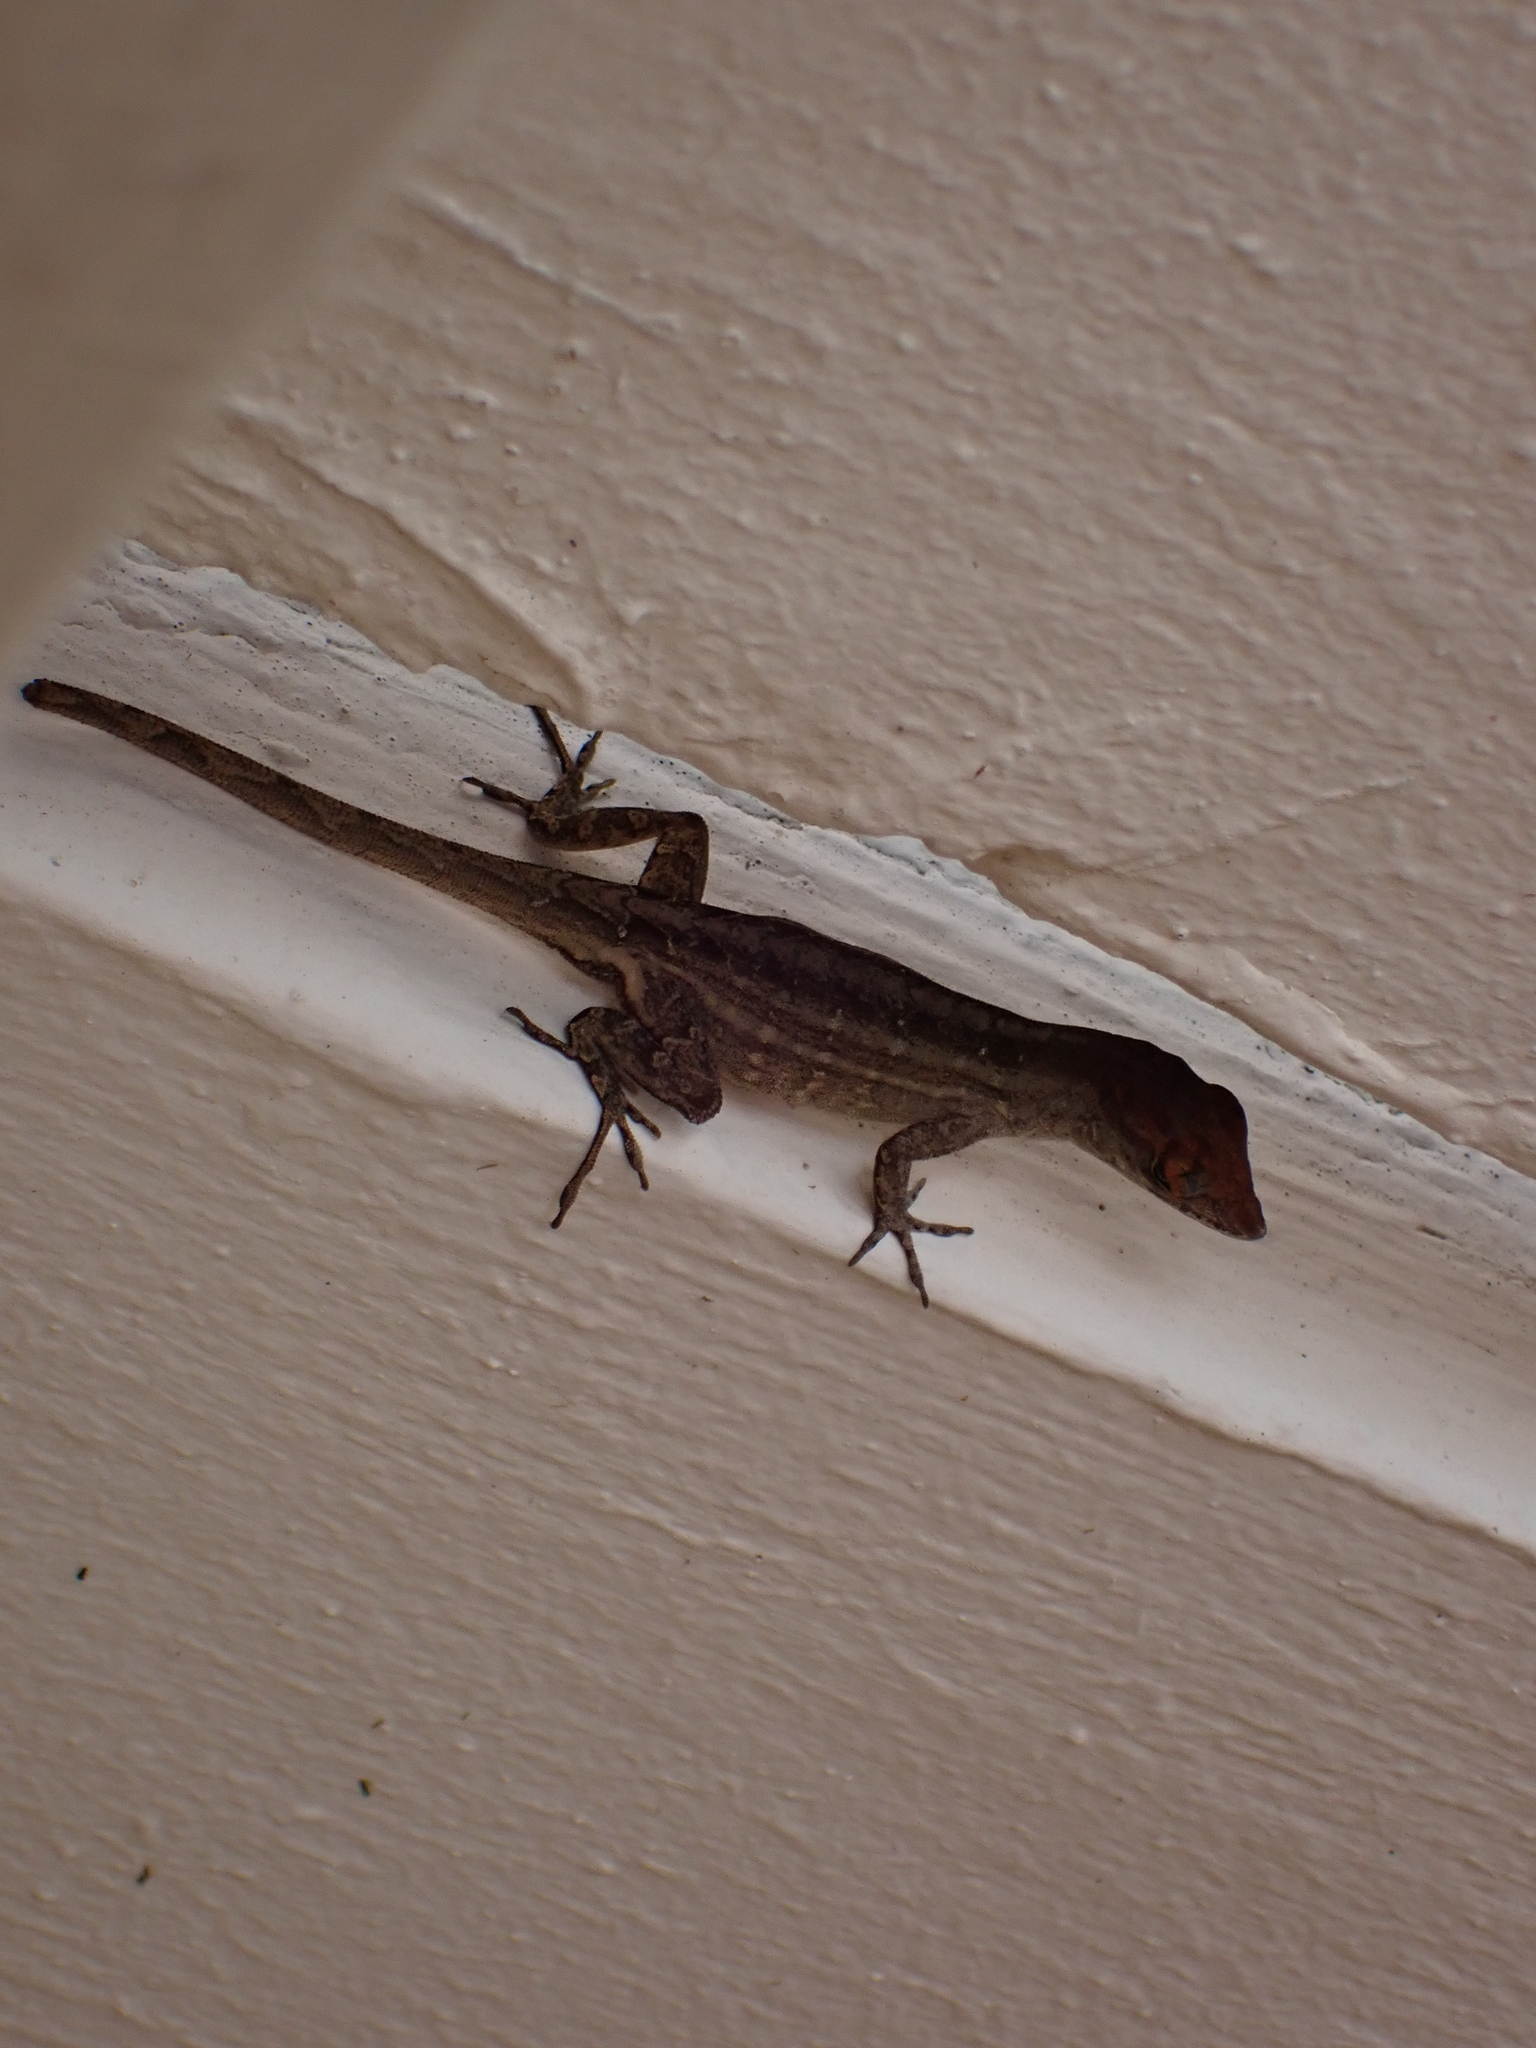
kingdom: Animalia
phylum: Chordata
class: Squamata
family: Dactyloidae
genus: Anolis
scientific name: Anolis sagrei
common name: Brown anole
